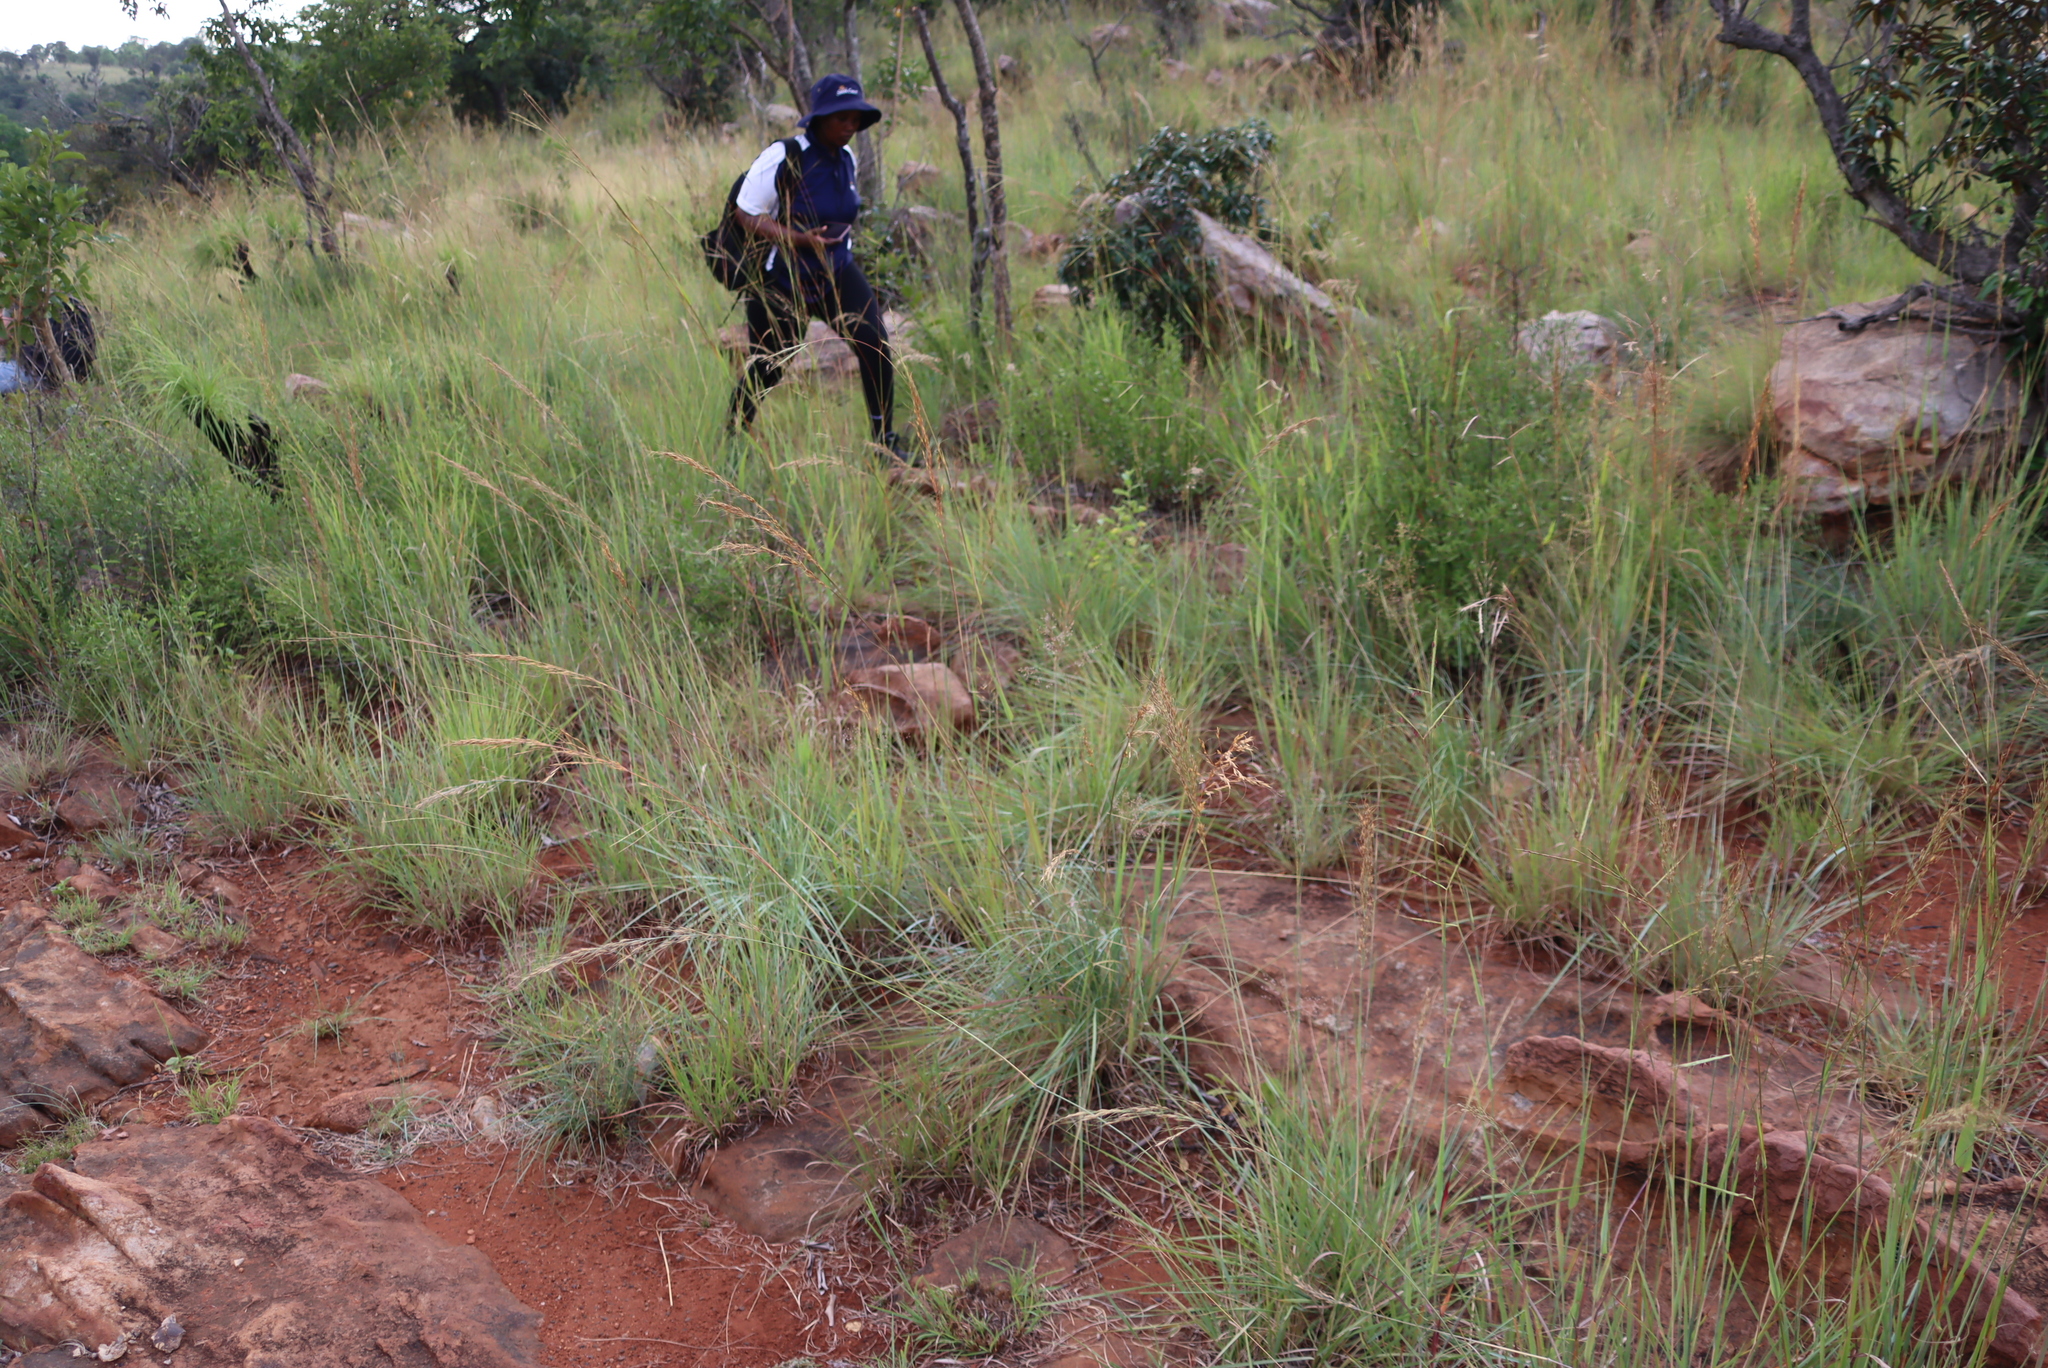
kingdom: Plantae
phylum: Tracheophyta
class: Liliopsida
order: Poales
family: Poaceae
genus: Loudetia
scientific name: Loudetia simplex
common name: Common russet grass
